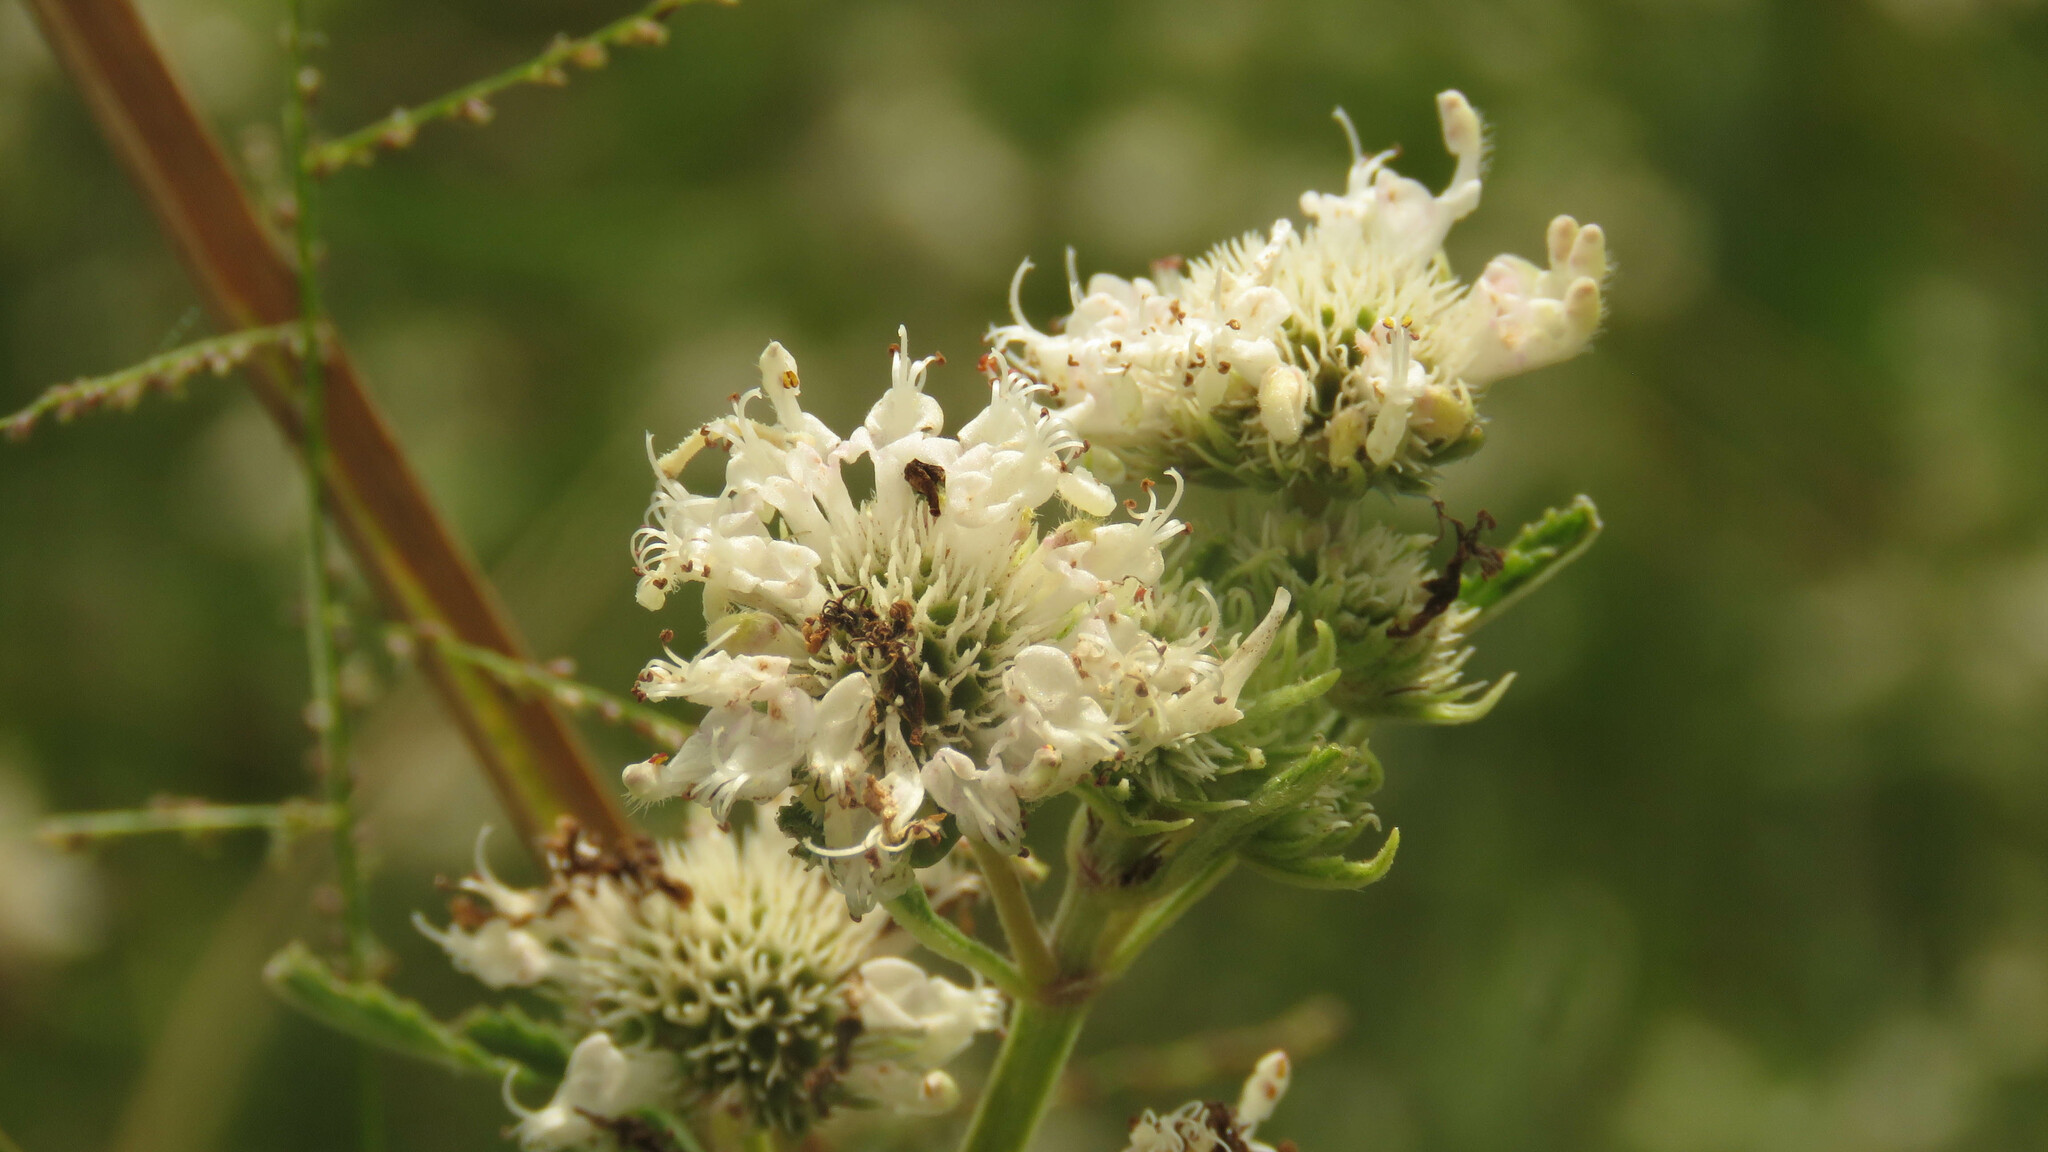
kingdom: Plantae
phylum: Tracheophyta
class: Magnoliopsida
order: Lamiales
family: Lamiaceae
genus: Hyptis
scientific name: Hyptis lappacea
